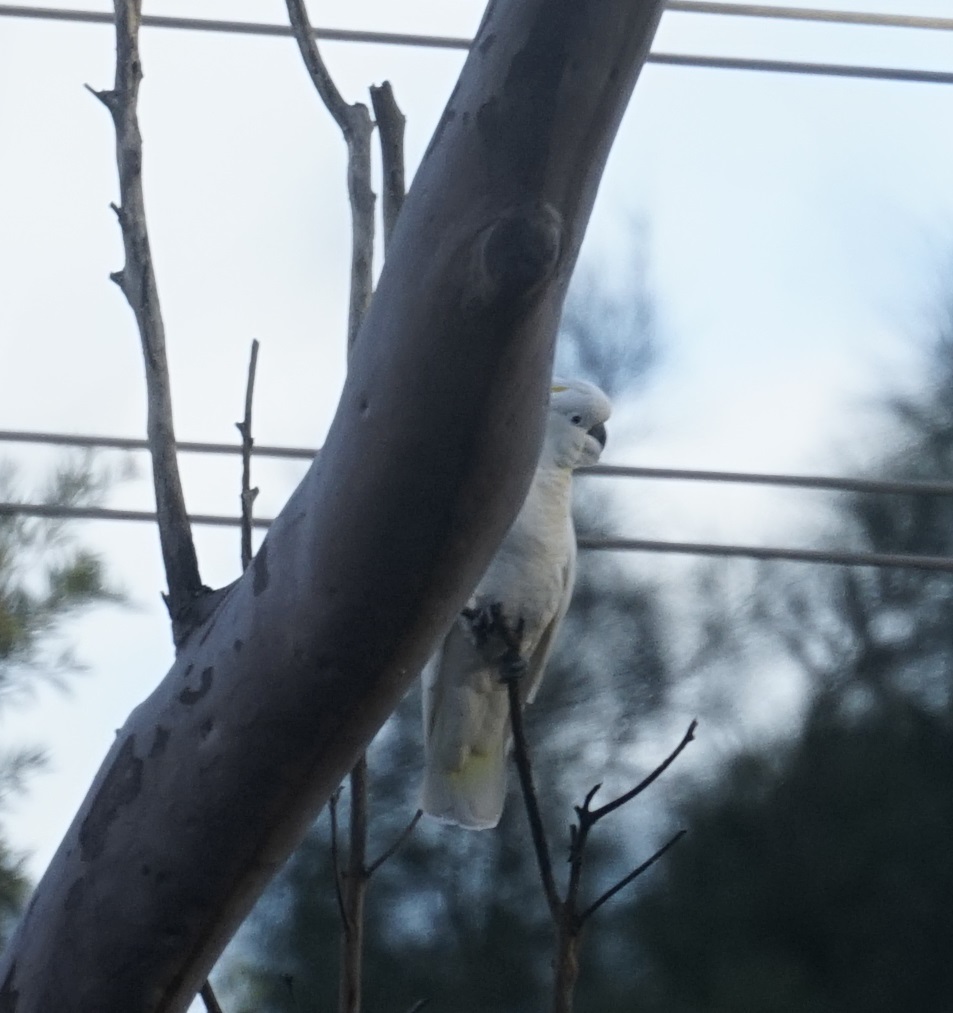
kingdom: Animalia
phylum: Chordata
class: Aves
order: Psittaciformes
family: Psittacidae
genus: Cacatua
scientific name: Cacatua galerita
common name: Sulphur-crested cockatoo
